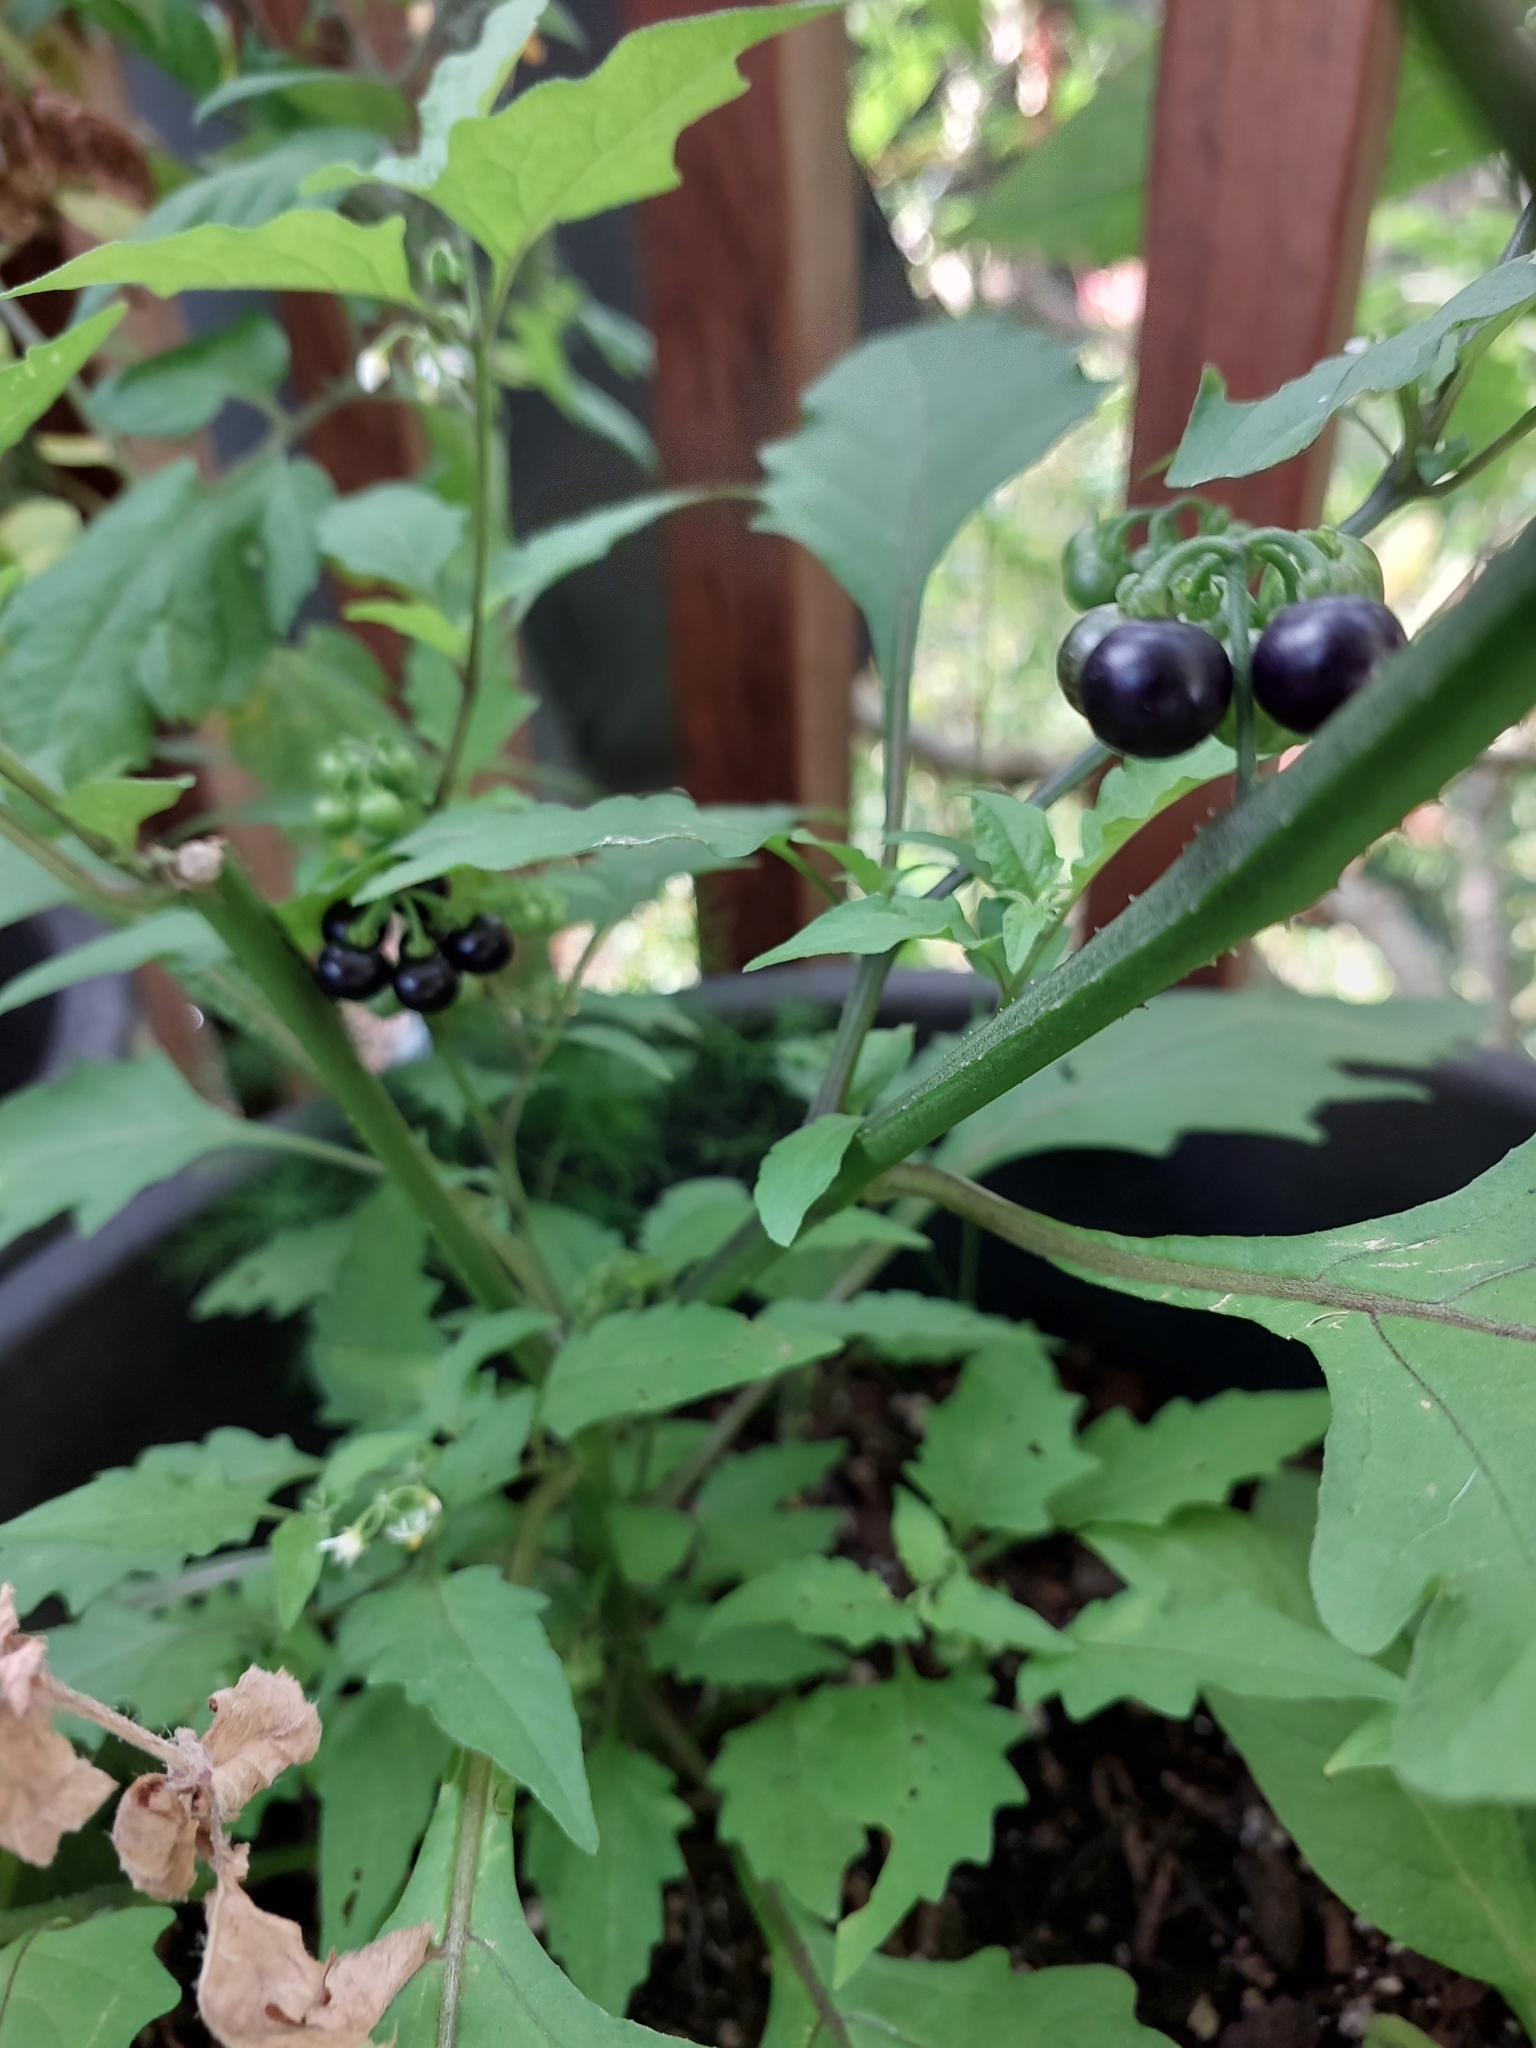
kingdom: Plantae
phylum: Tracheophyta
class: Magnoliopsida
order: Solanales
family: Solanaceae
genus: Solanum
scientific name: Solanum americanum
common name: American black nightshade
